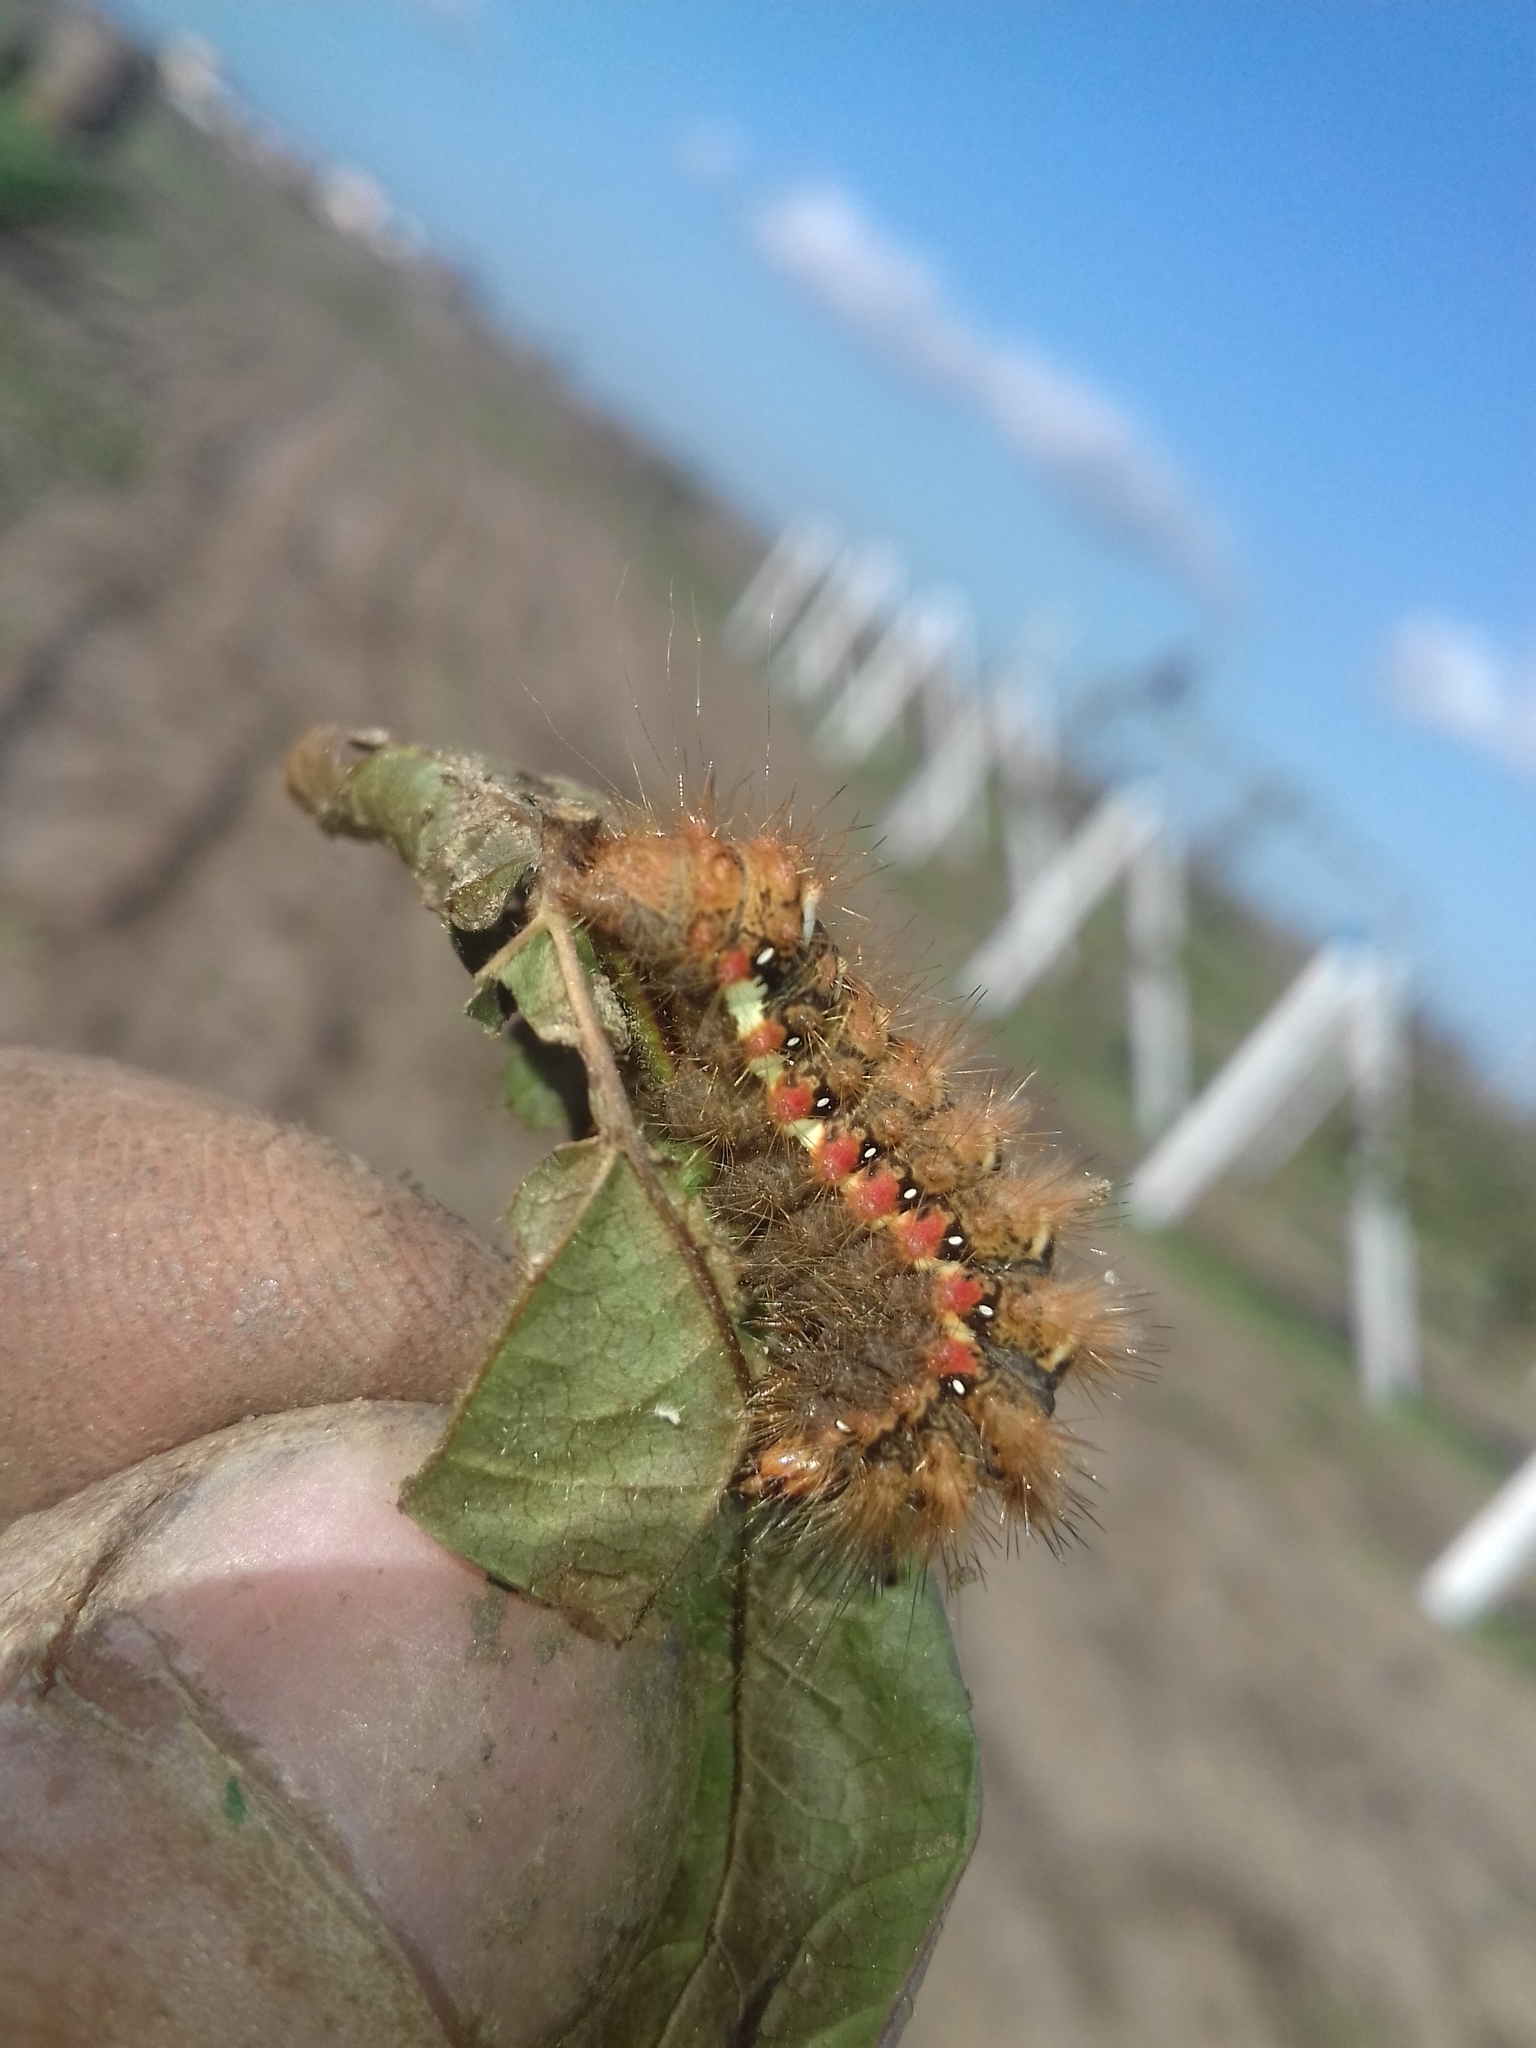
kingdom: Animalia
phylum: Arthropoda
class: Insecta
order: Lepidoptera
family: Noctuidae
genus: Acronicta
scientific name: Acronicta rumicis
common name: Knot grass
